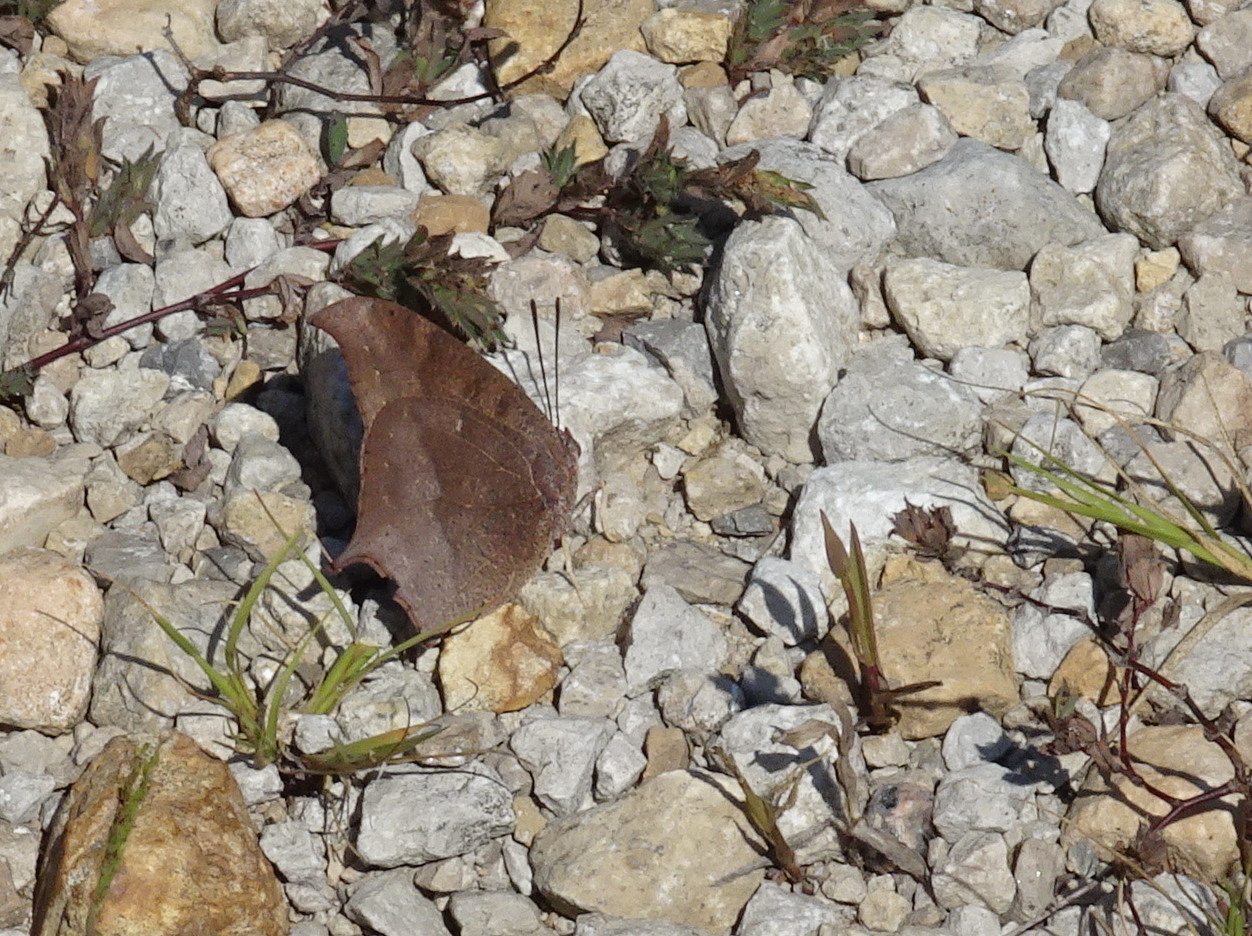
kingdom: Animalia
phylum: Arthropoda
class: Insecta
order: Lepidoptera
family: Nymphalidae
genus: Anaea
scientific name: Anaea andria
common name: Goatweed leafwing
